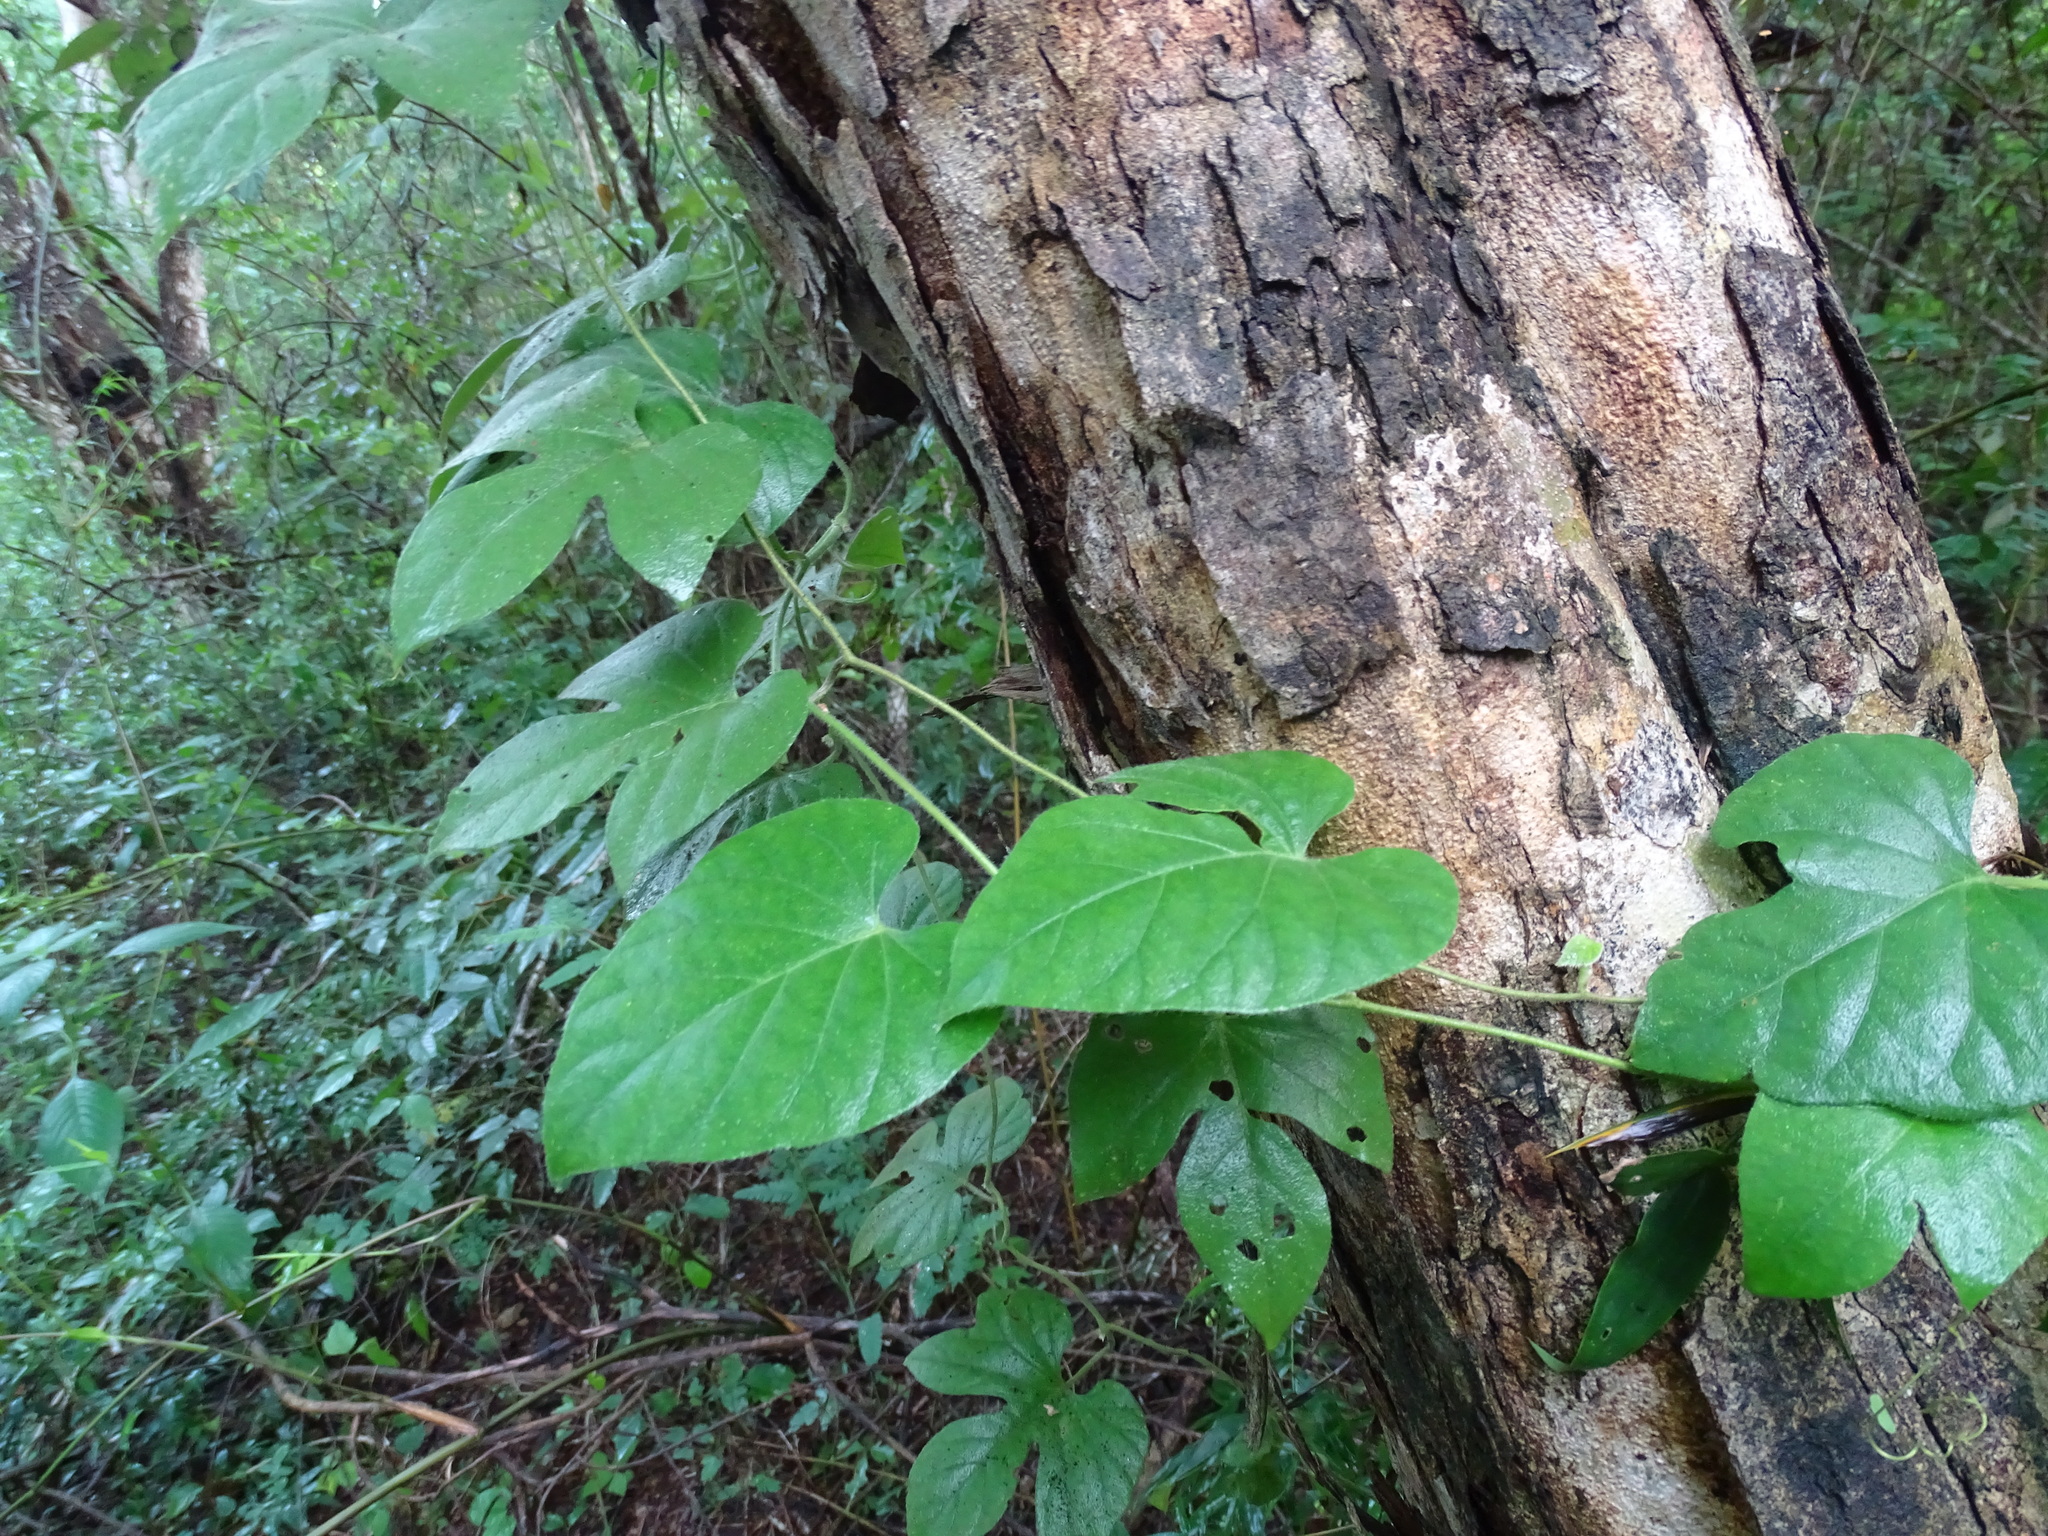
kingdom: Plantae
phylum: Tracheophyta
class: Magnoliopsida
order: Solanales
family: Convolvulaceae
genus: Ipomoea
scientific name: Ipomoea peteri
